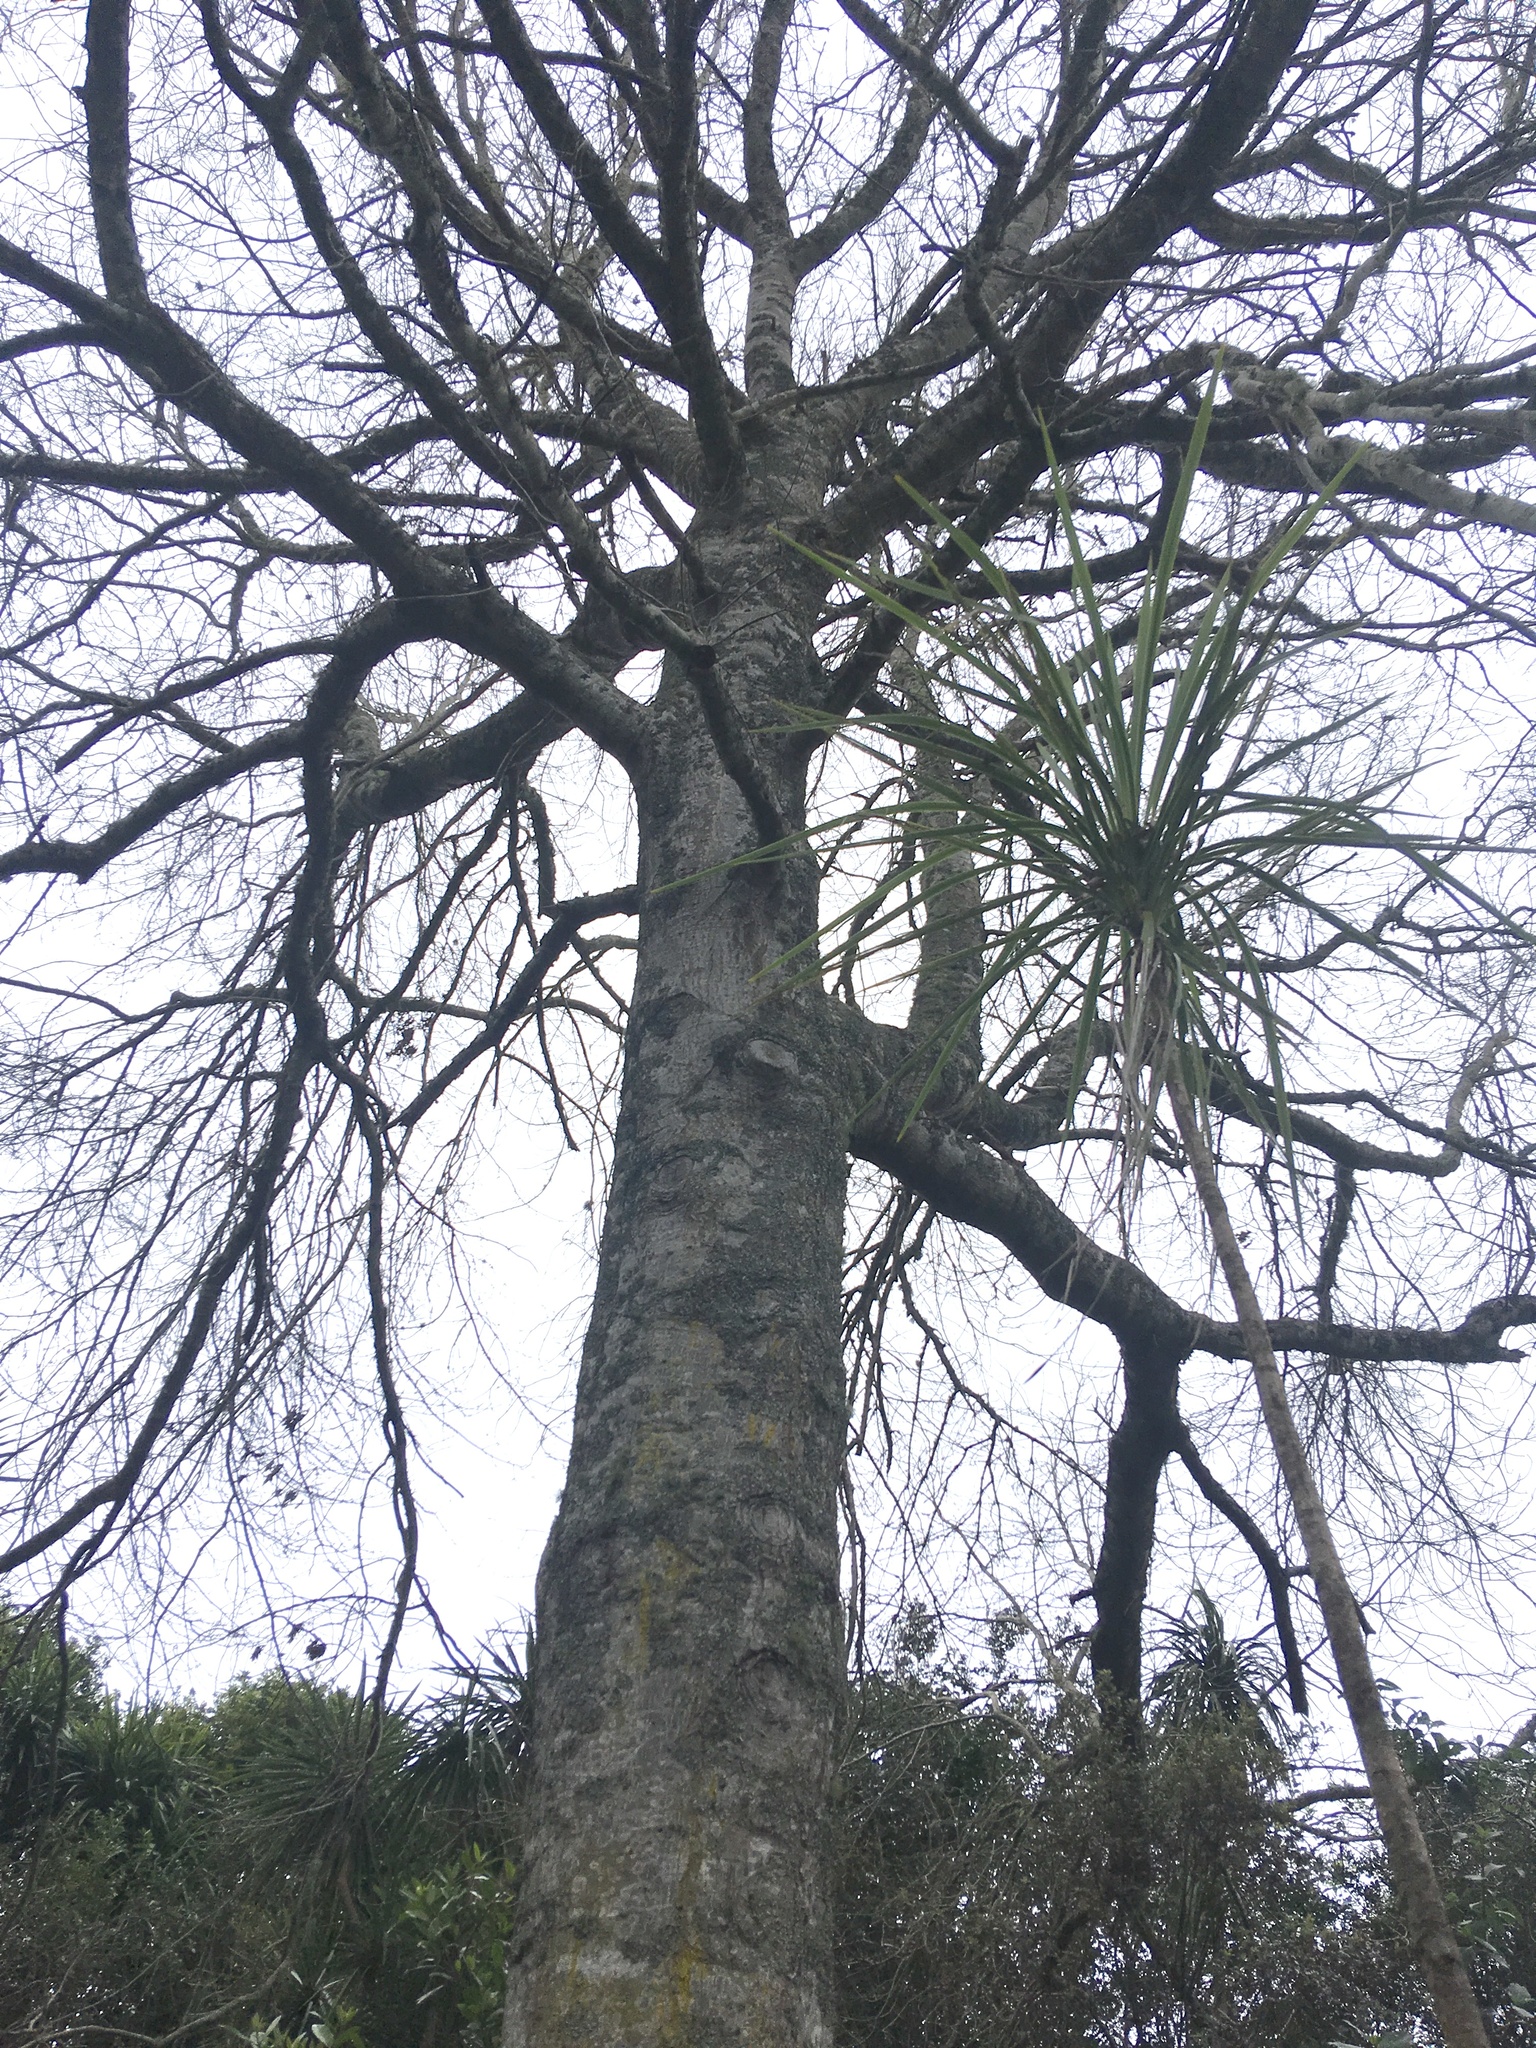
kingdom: Plantae
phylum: Tracheophyta
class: Liliopsida
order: Asparagales
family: Asparagaceae
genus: Cordyline
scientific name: Cordyline australis
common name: Cabbage-palm
